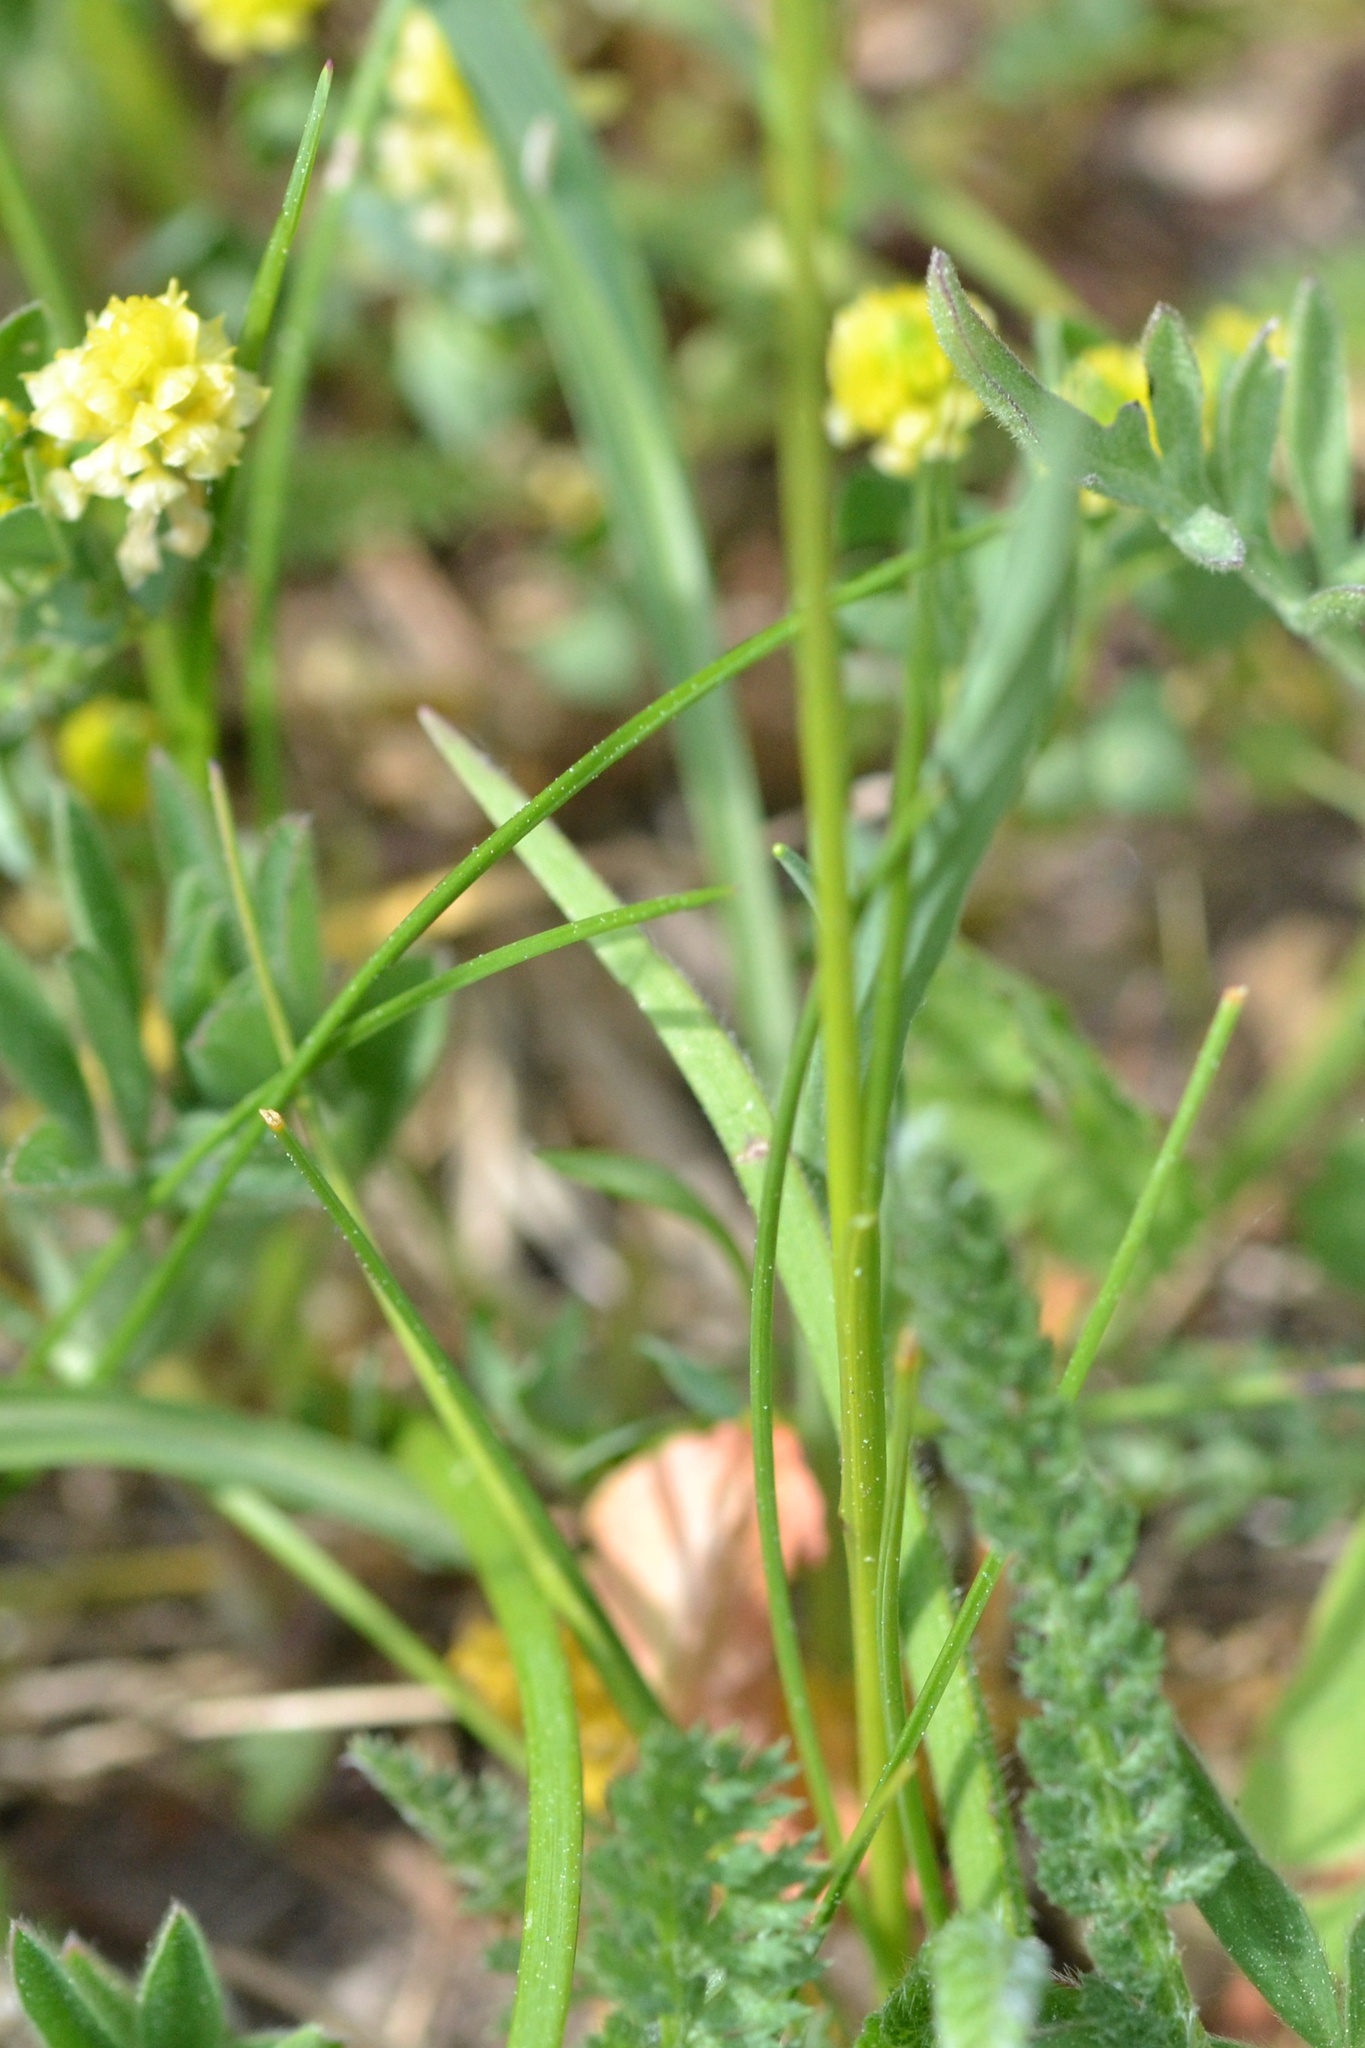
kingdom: Plantae
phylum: Tracheophyta
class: Magnoliopsida
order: Fabales
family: Fabaceae
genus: Trifolium
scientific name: Trifolium campestre
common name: Field clover
